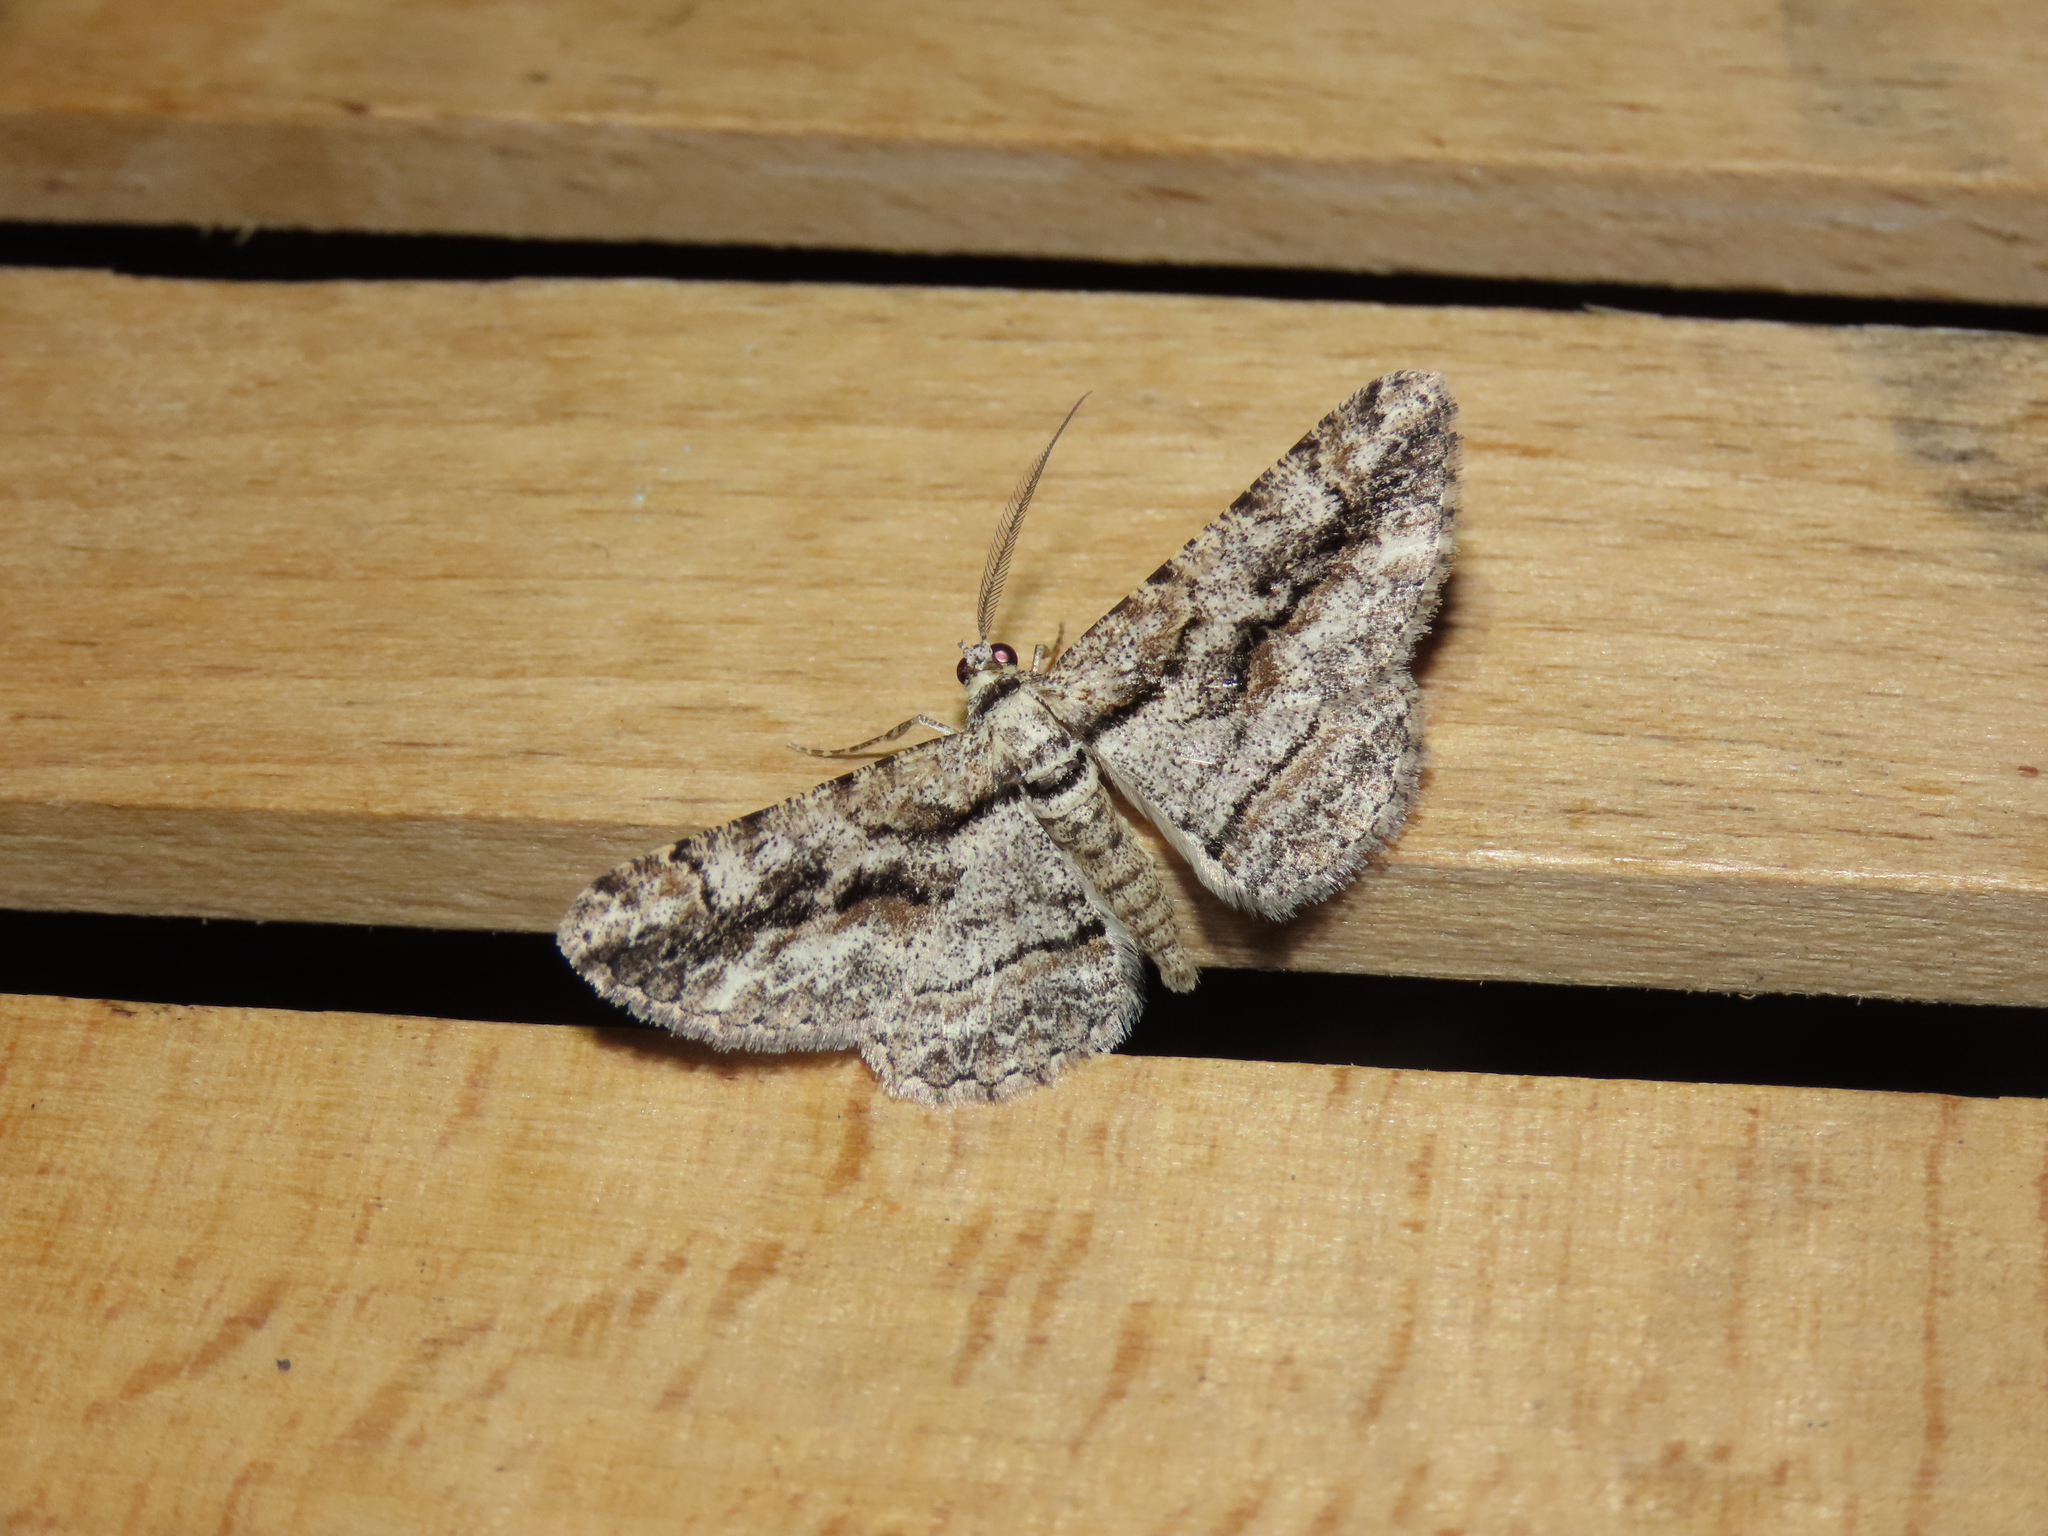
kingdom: Animalia
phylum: Arthropoda
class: Insecta
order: Lepidoptera
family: Geometridae
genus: Anavitrinella
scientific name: Anavitrinella atristrigaria
